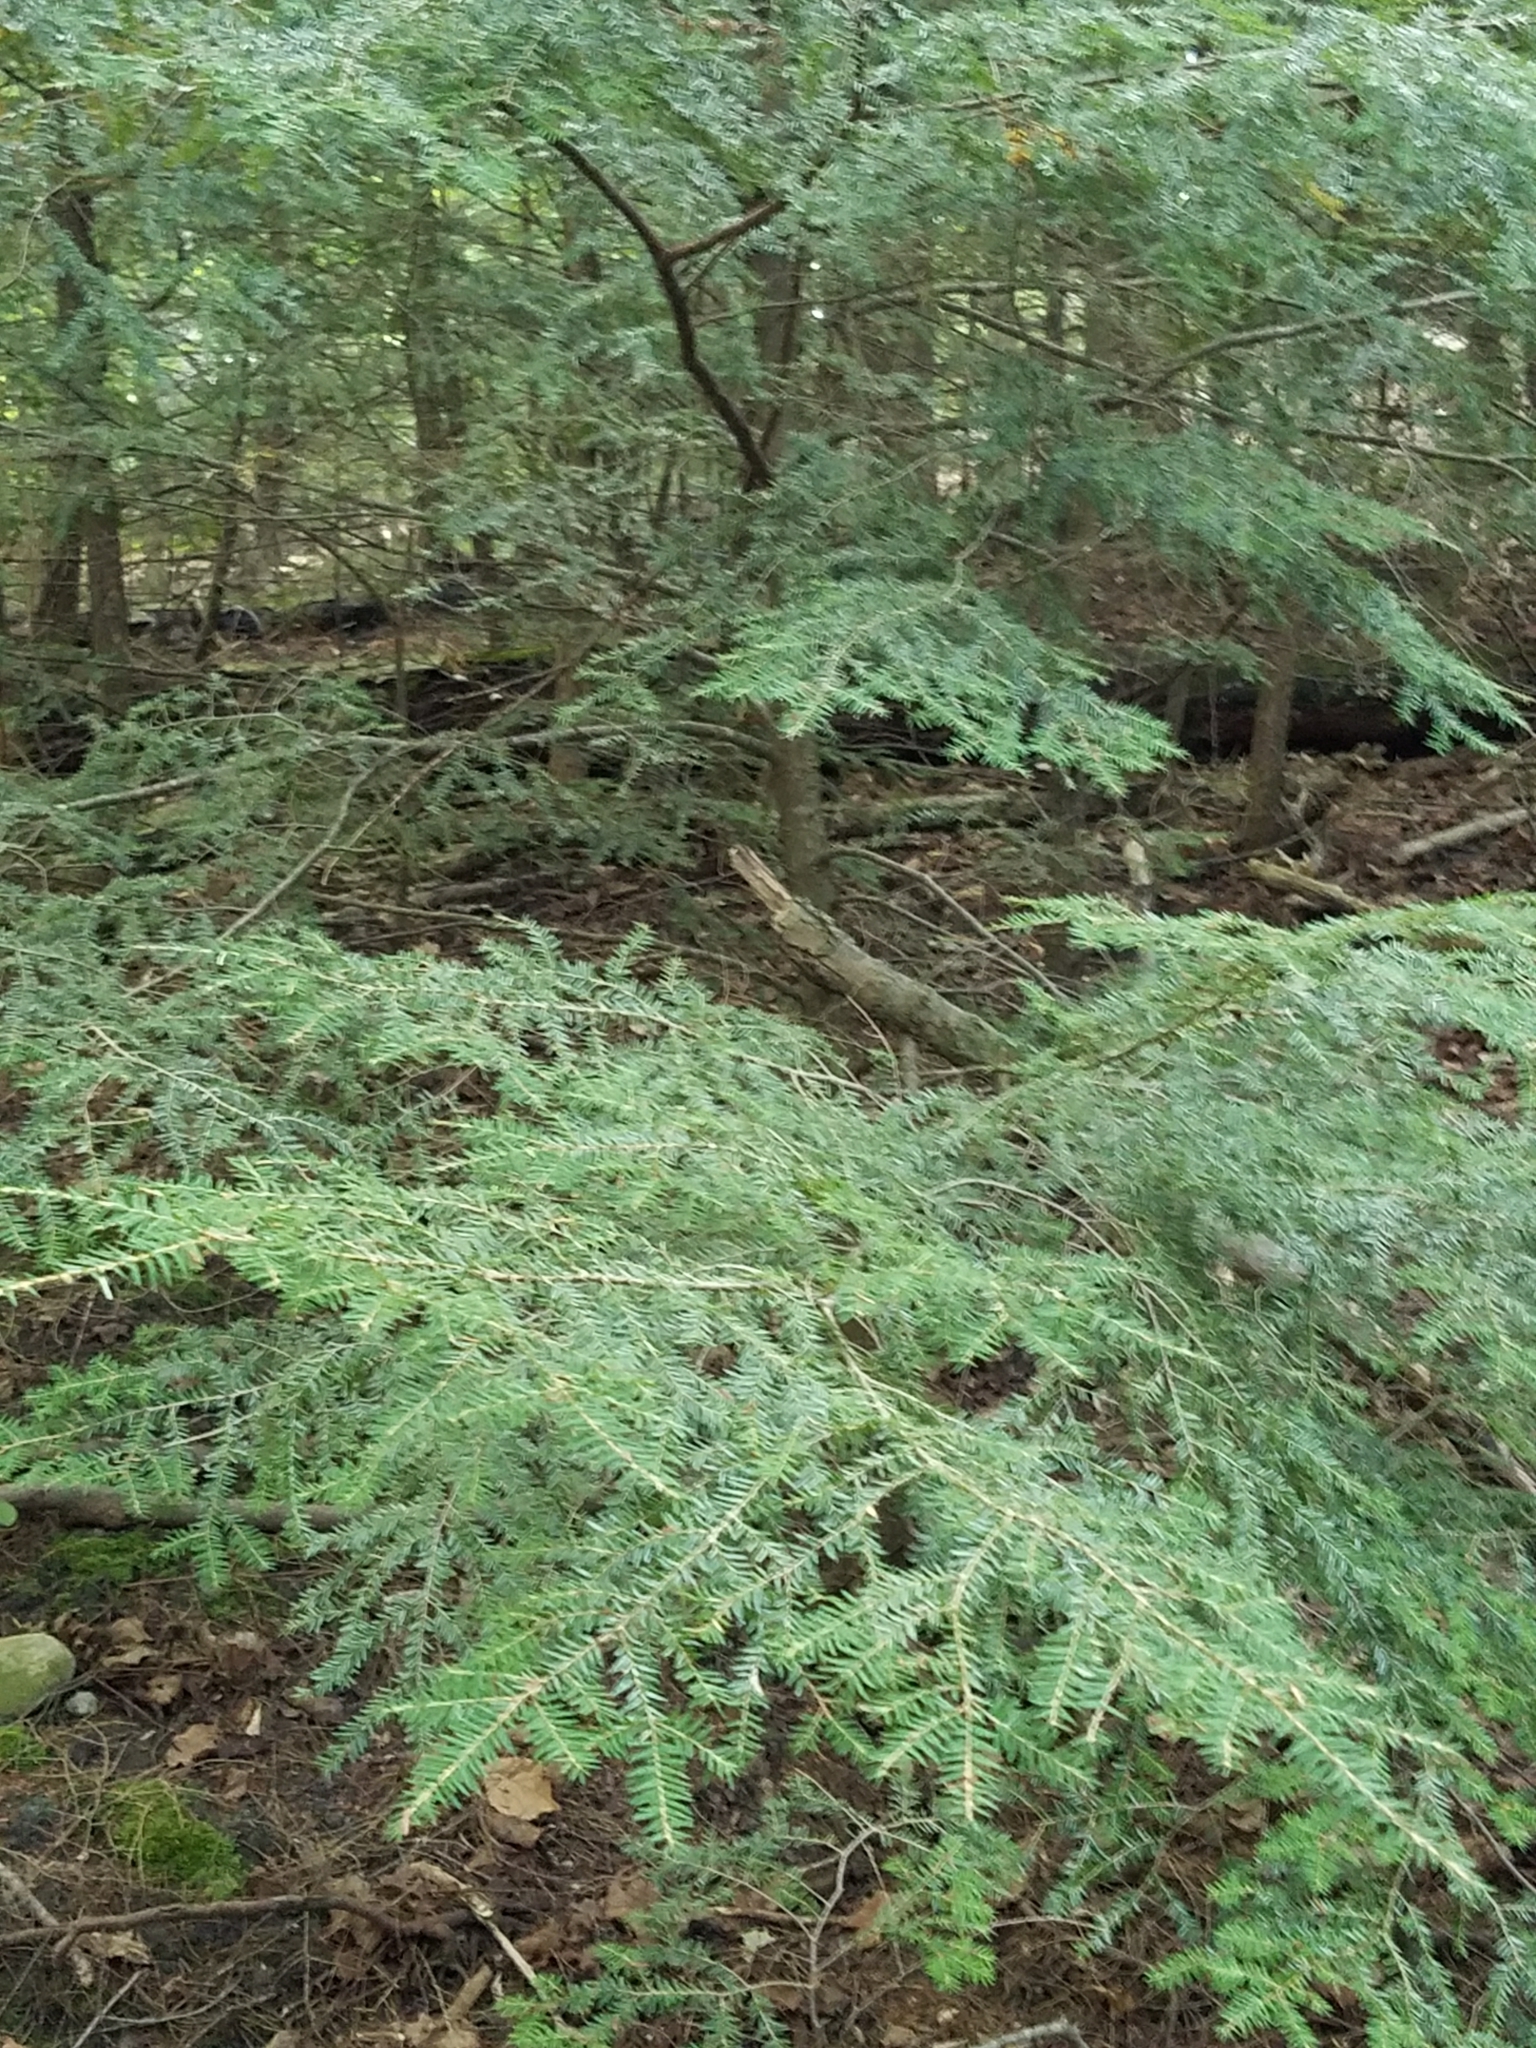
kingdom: Plantae
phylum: Tracheophyta
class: Pinopsida
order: Pinales
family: Pinaceae
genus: Tsuga
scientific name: Tsuga canadensis
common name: Eastern hemlock
